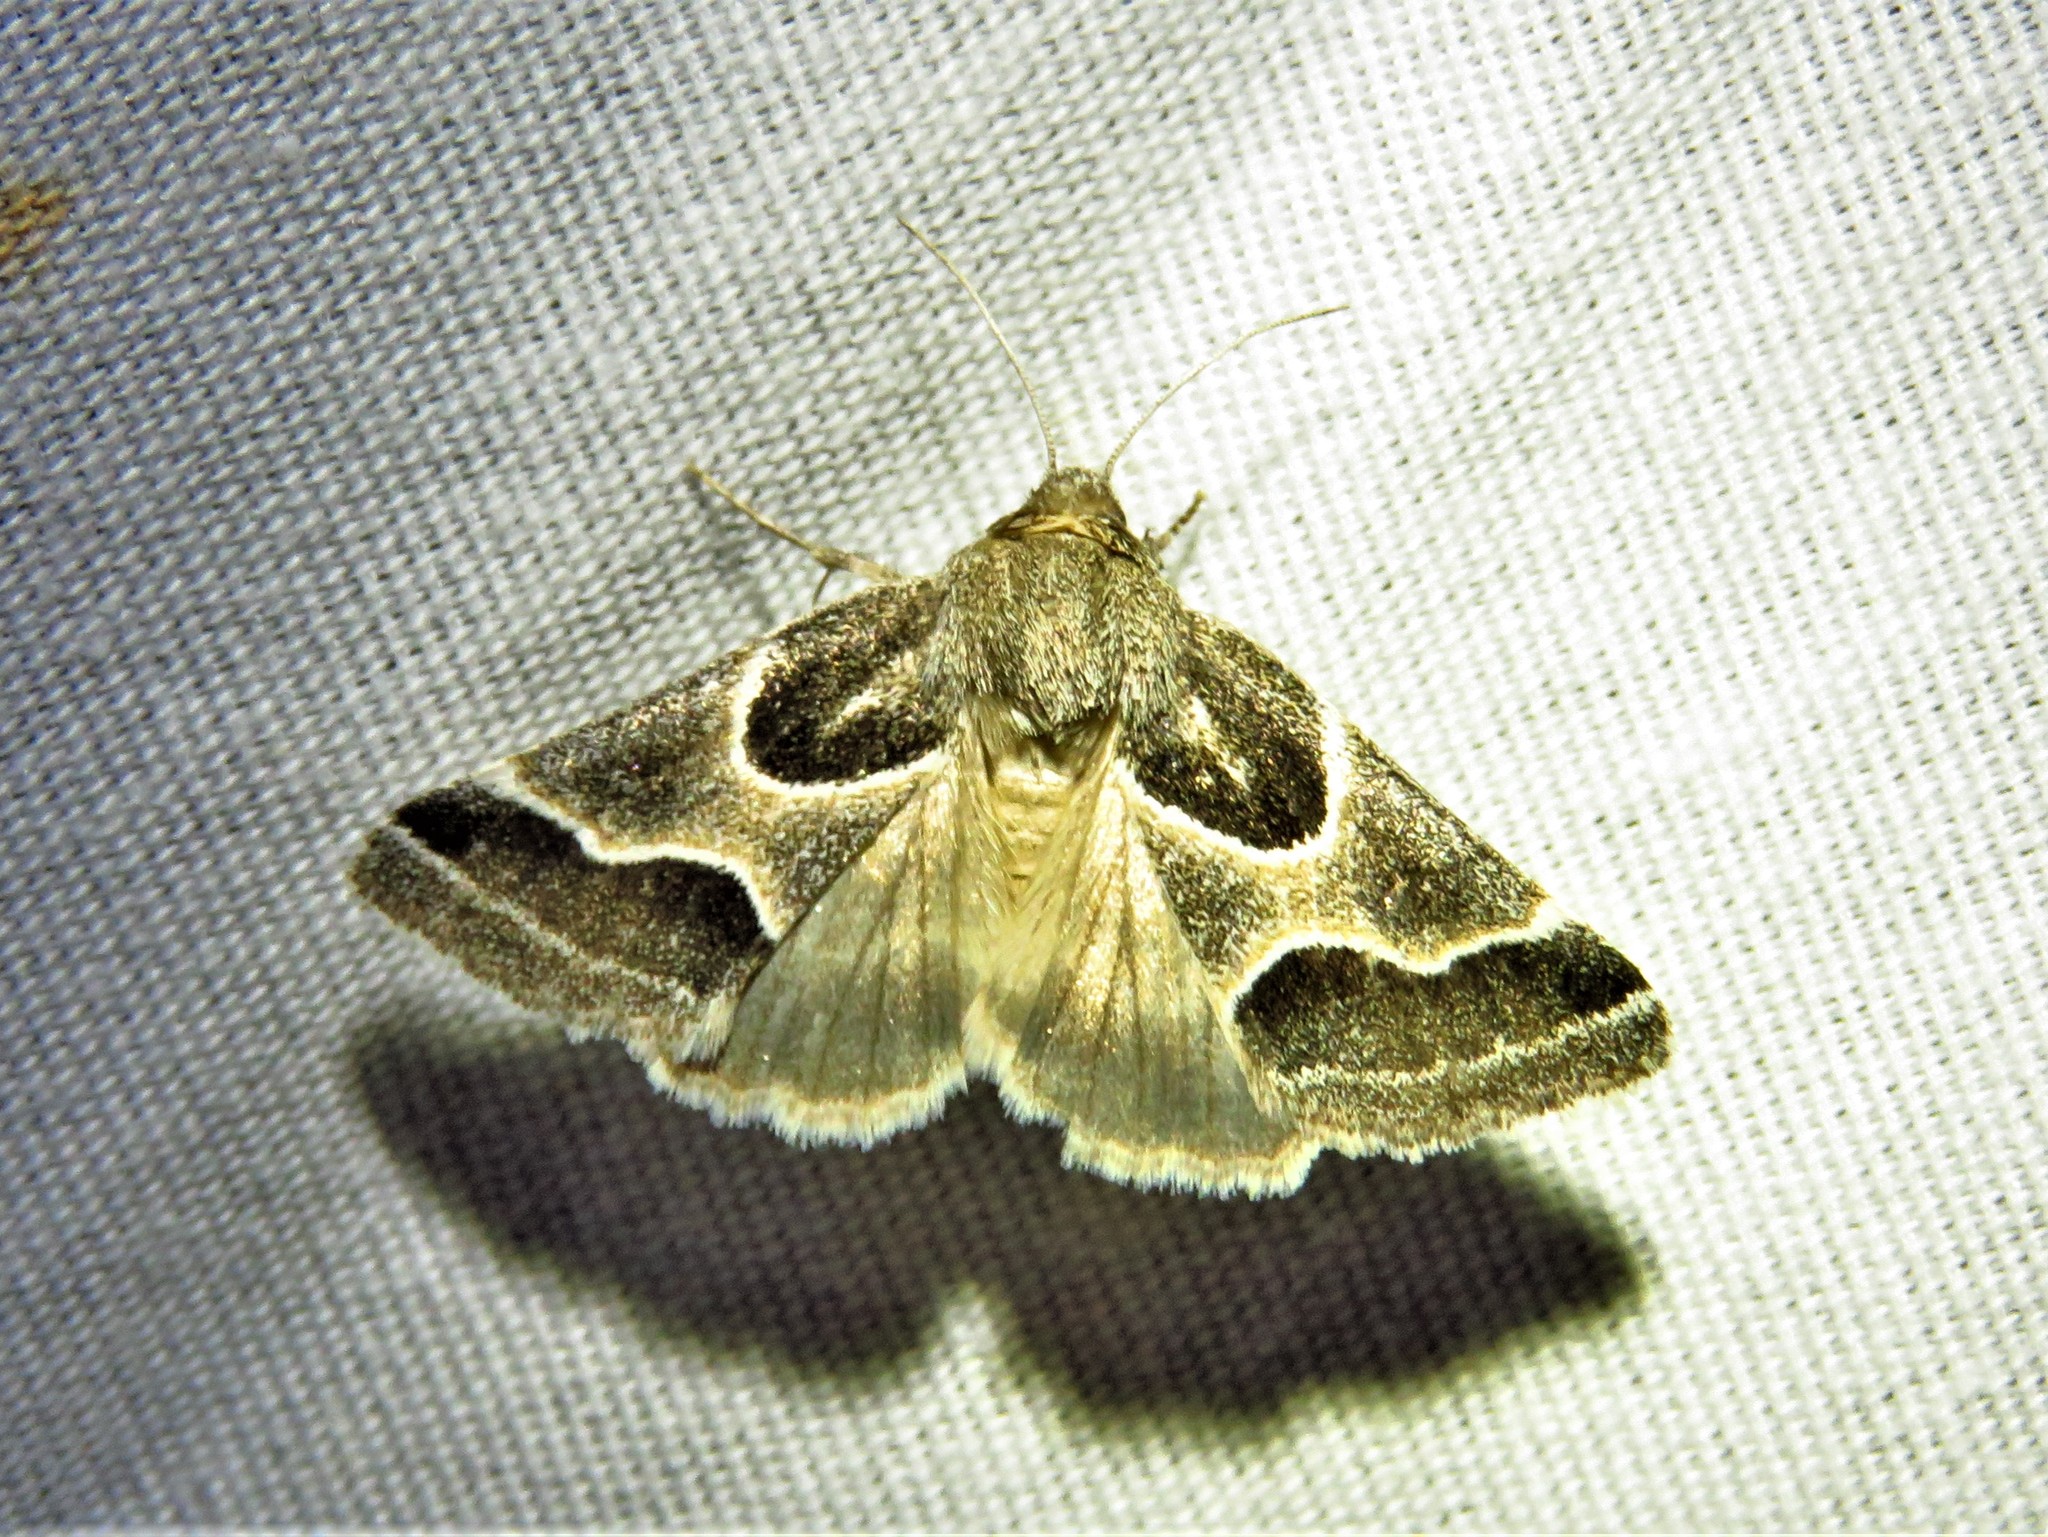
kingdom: Animalia
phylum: Arthropoda
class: Insecta
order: Lepidoptera
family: Noctuidae
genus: Schinia
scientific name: Schinia rivulosa
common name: Scarce meal-moth
